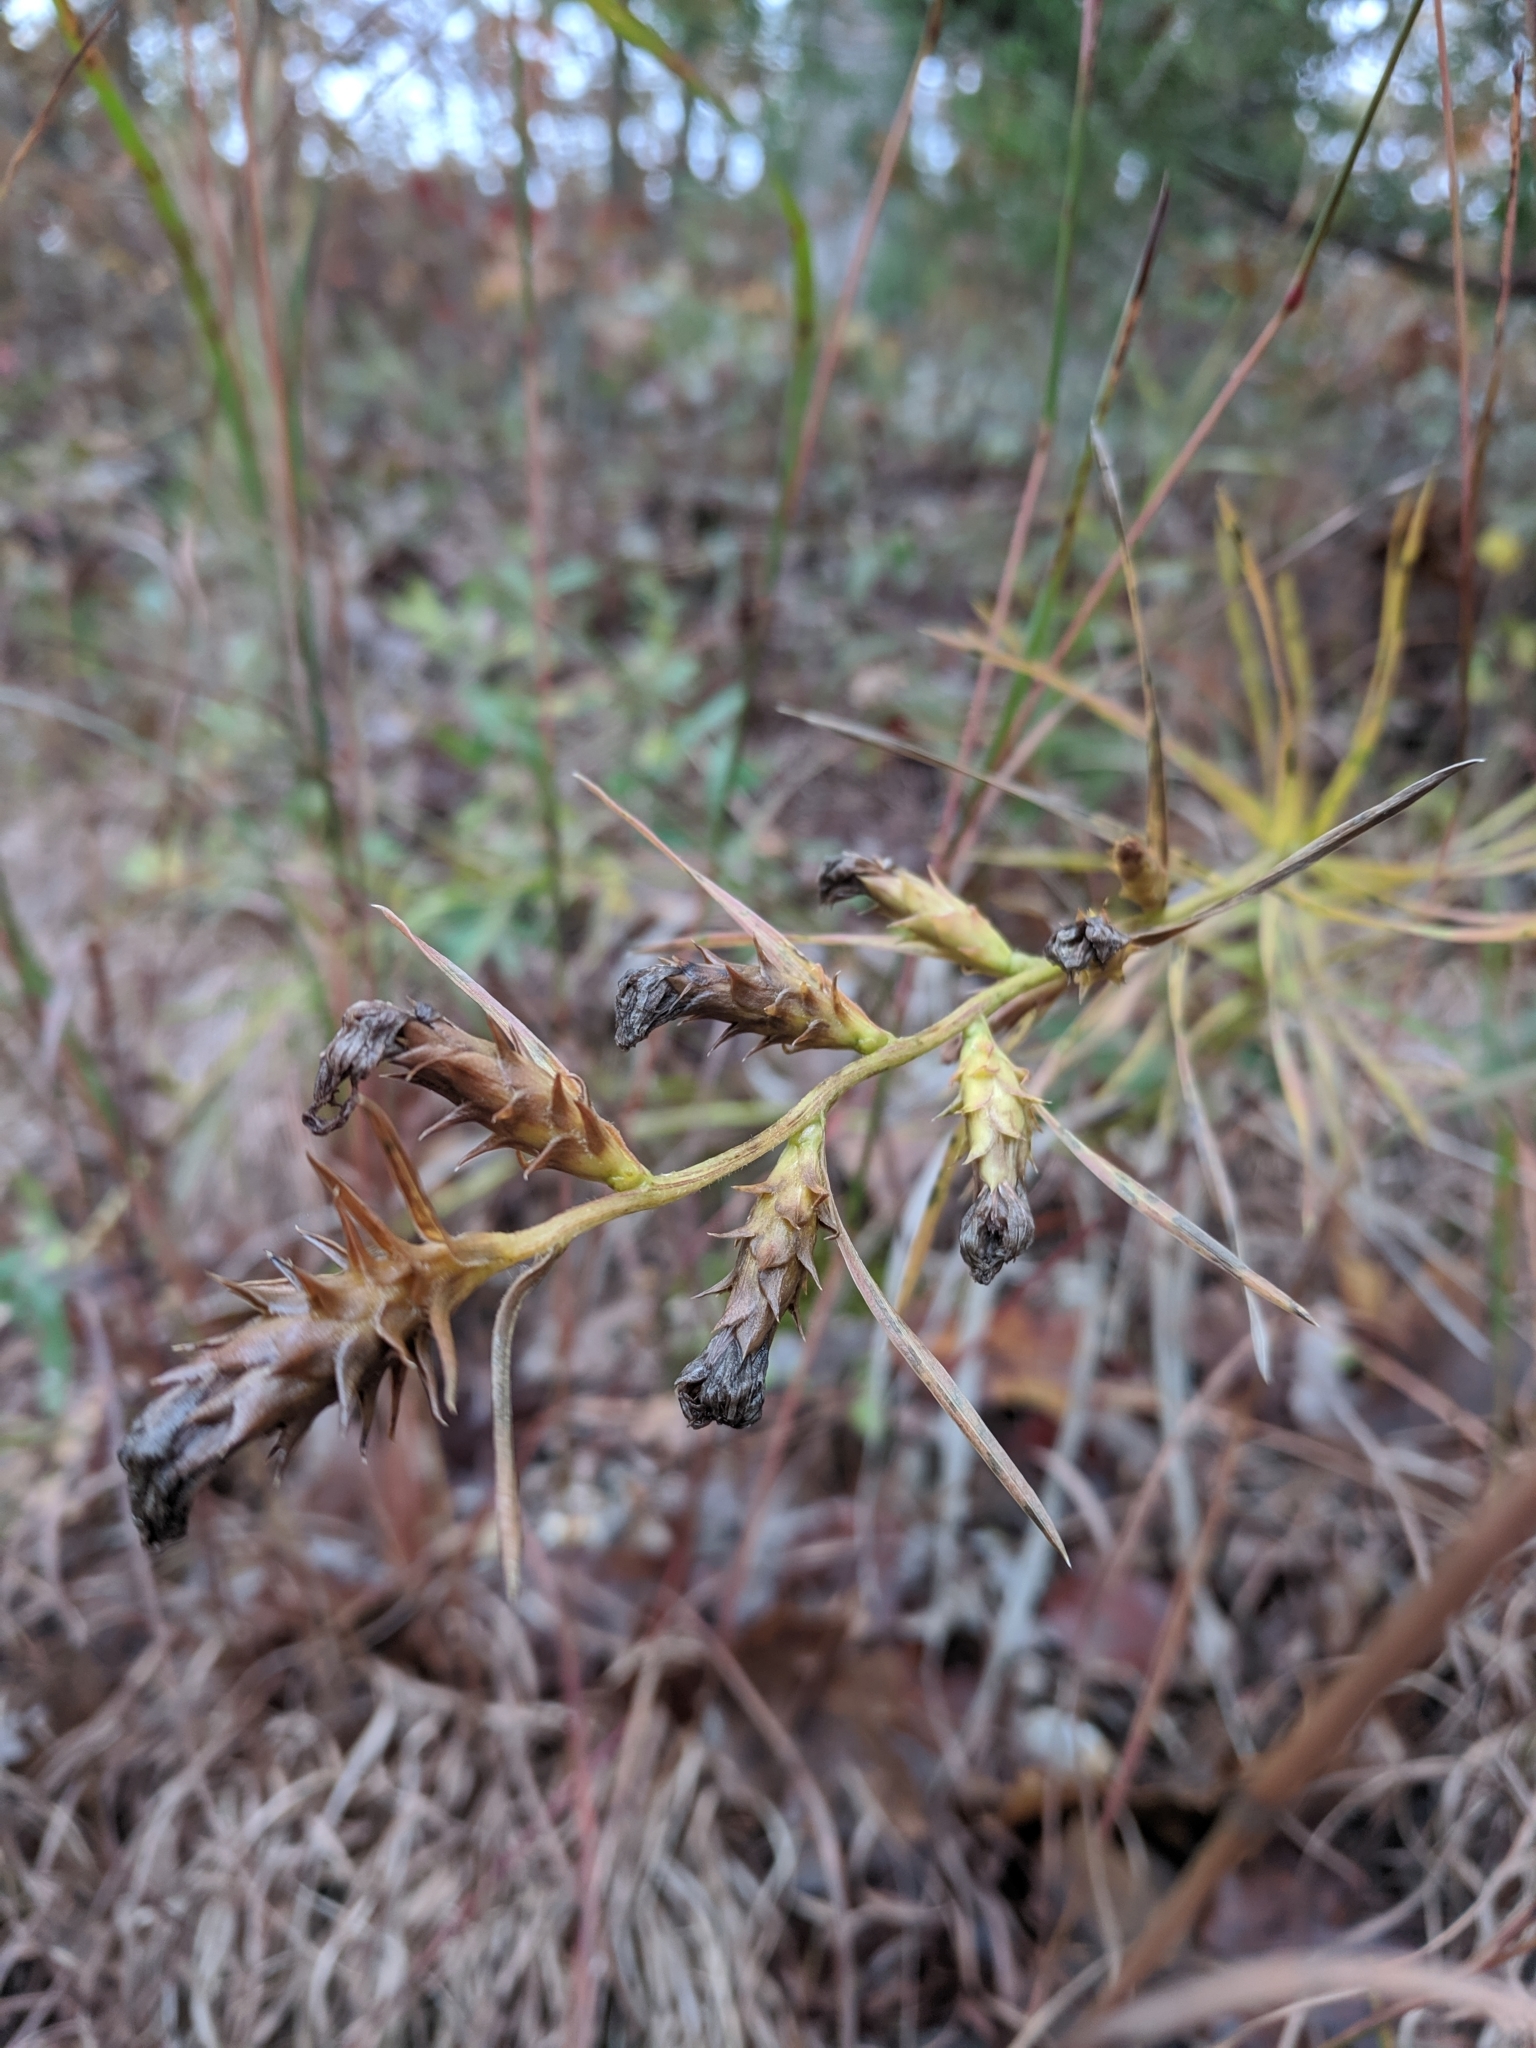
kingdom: Plantae
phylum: Tracheophyta
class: Magnoliopsida
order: Asterales
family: Asteraceae
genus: Liatris
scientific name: Liatris squarrosa
